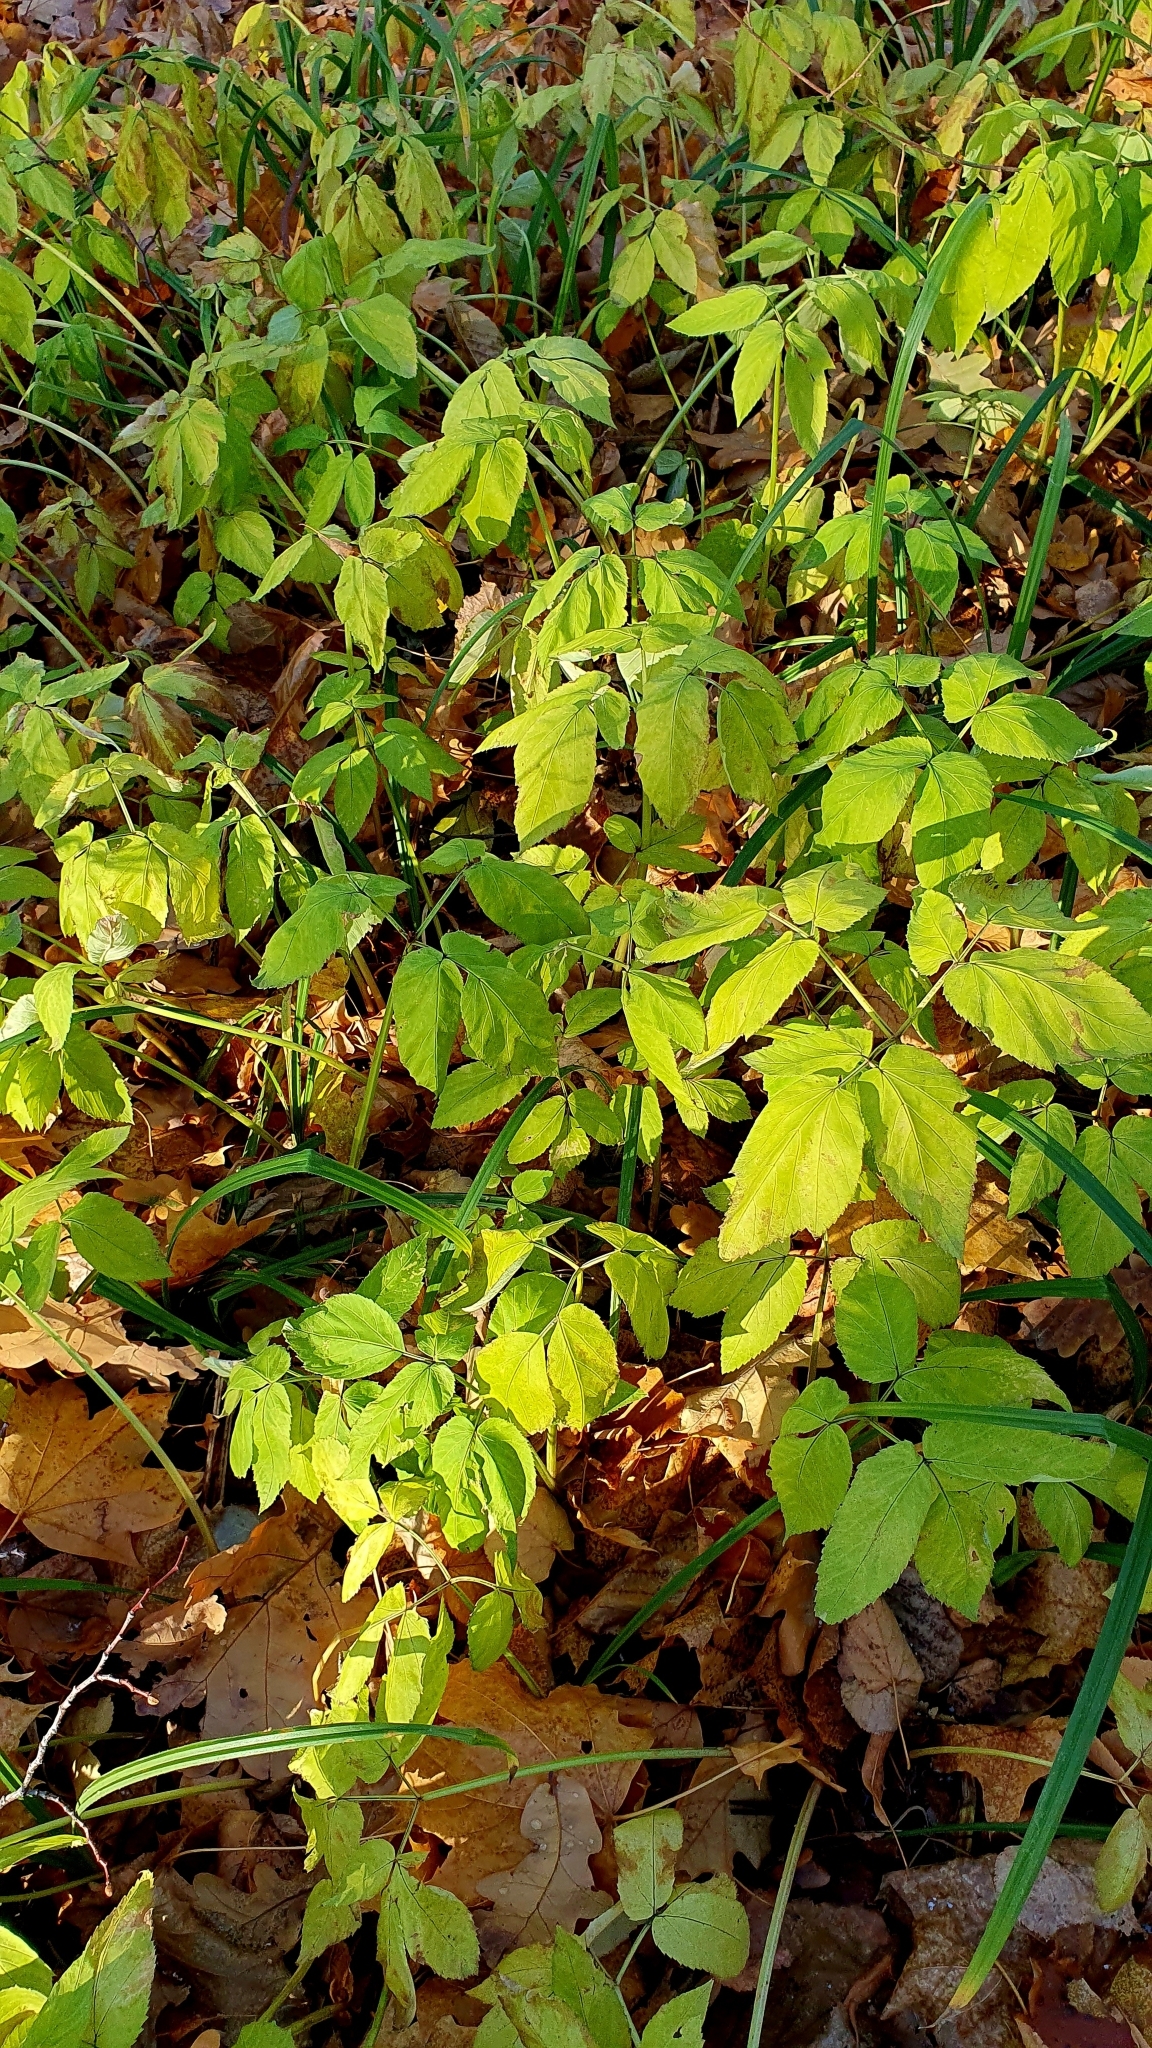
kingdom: Plantae
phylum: Tracheophyta
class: Magnoliopsida
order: Apiales
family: Apiaceae
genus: Aegopodium
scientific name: Aegopodium podagraria
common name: Ground-elder
